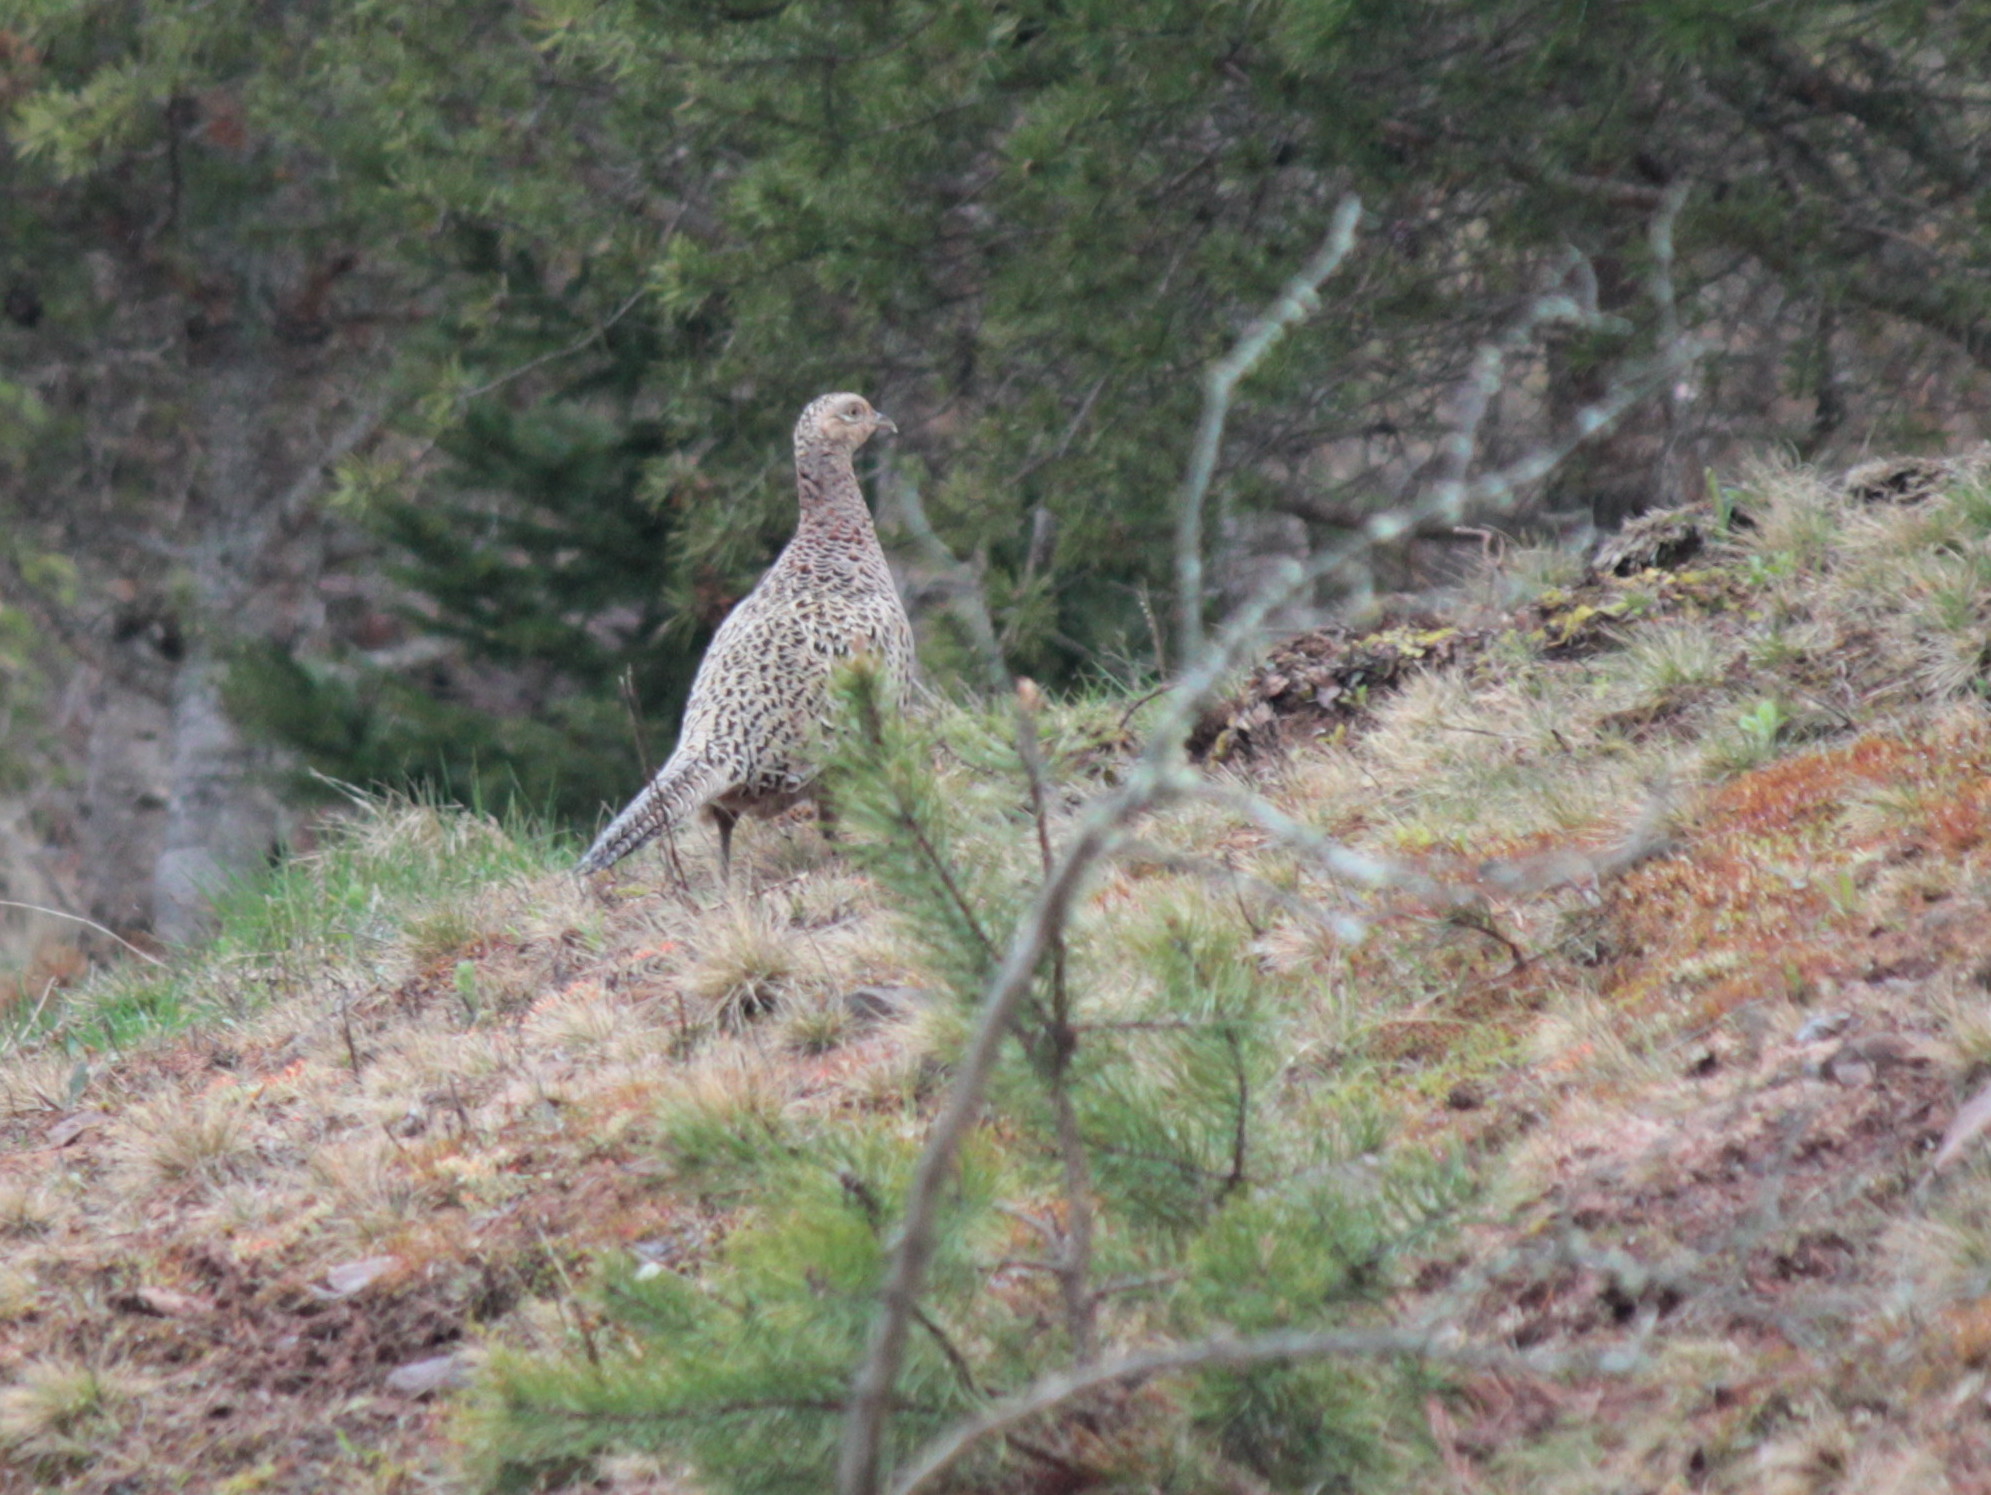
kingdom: Animalia
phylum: Chordata
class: Aves
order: Galliformes
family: Phasianidae
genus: Phasianus
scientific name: Phasianus colchicus
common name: Common pheasant
